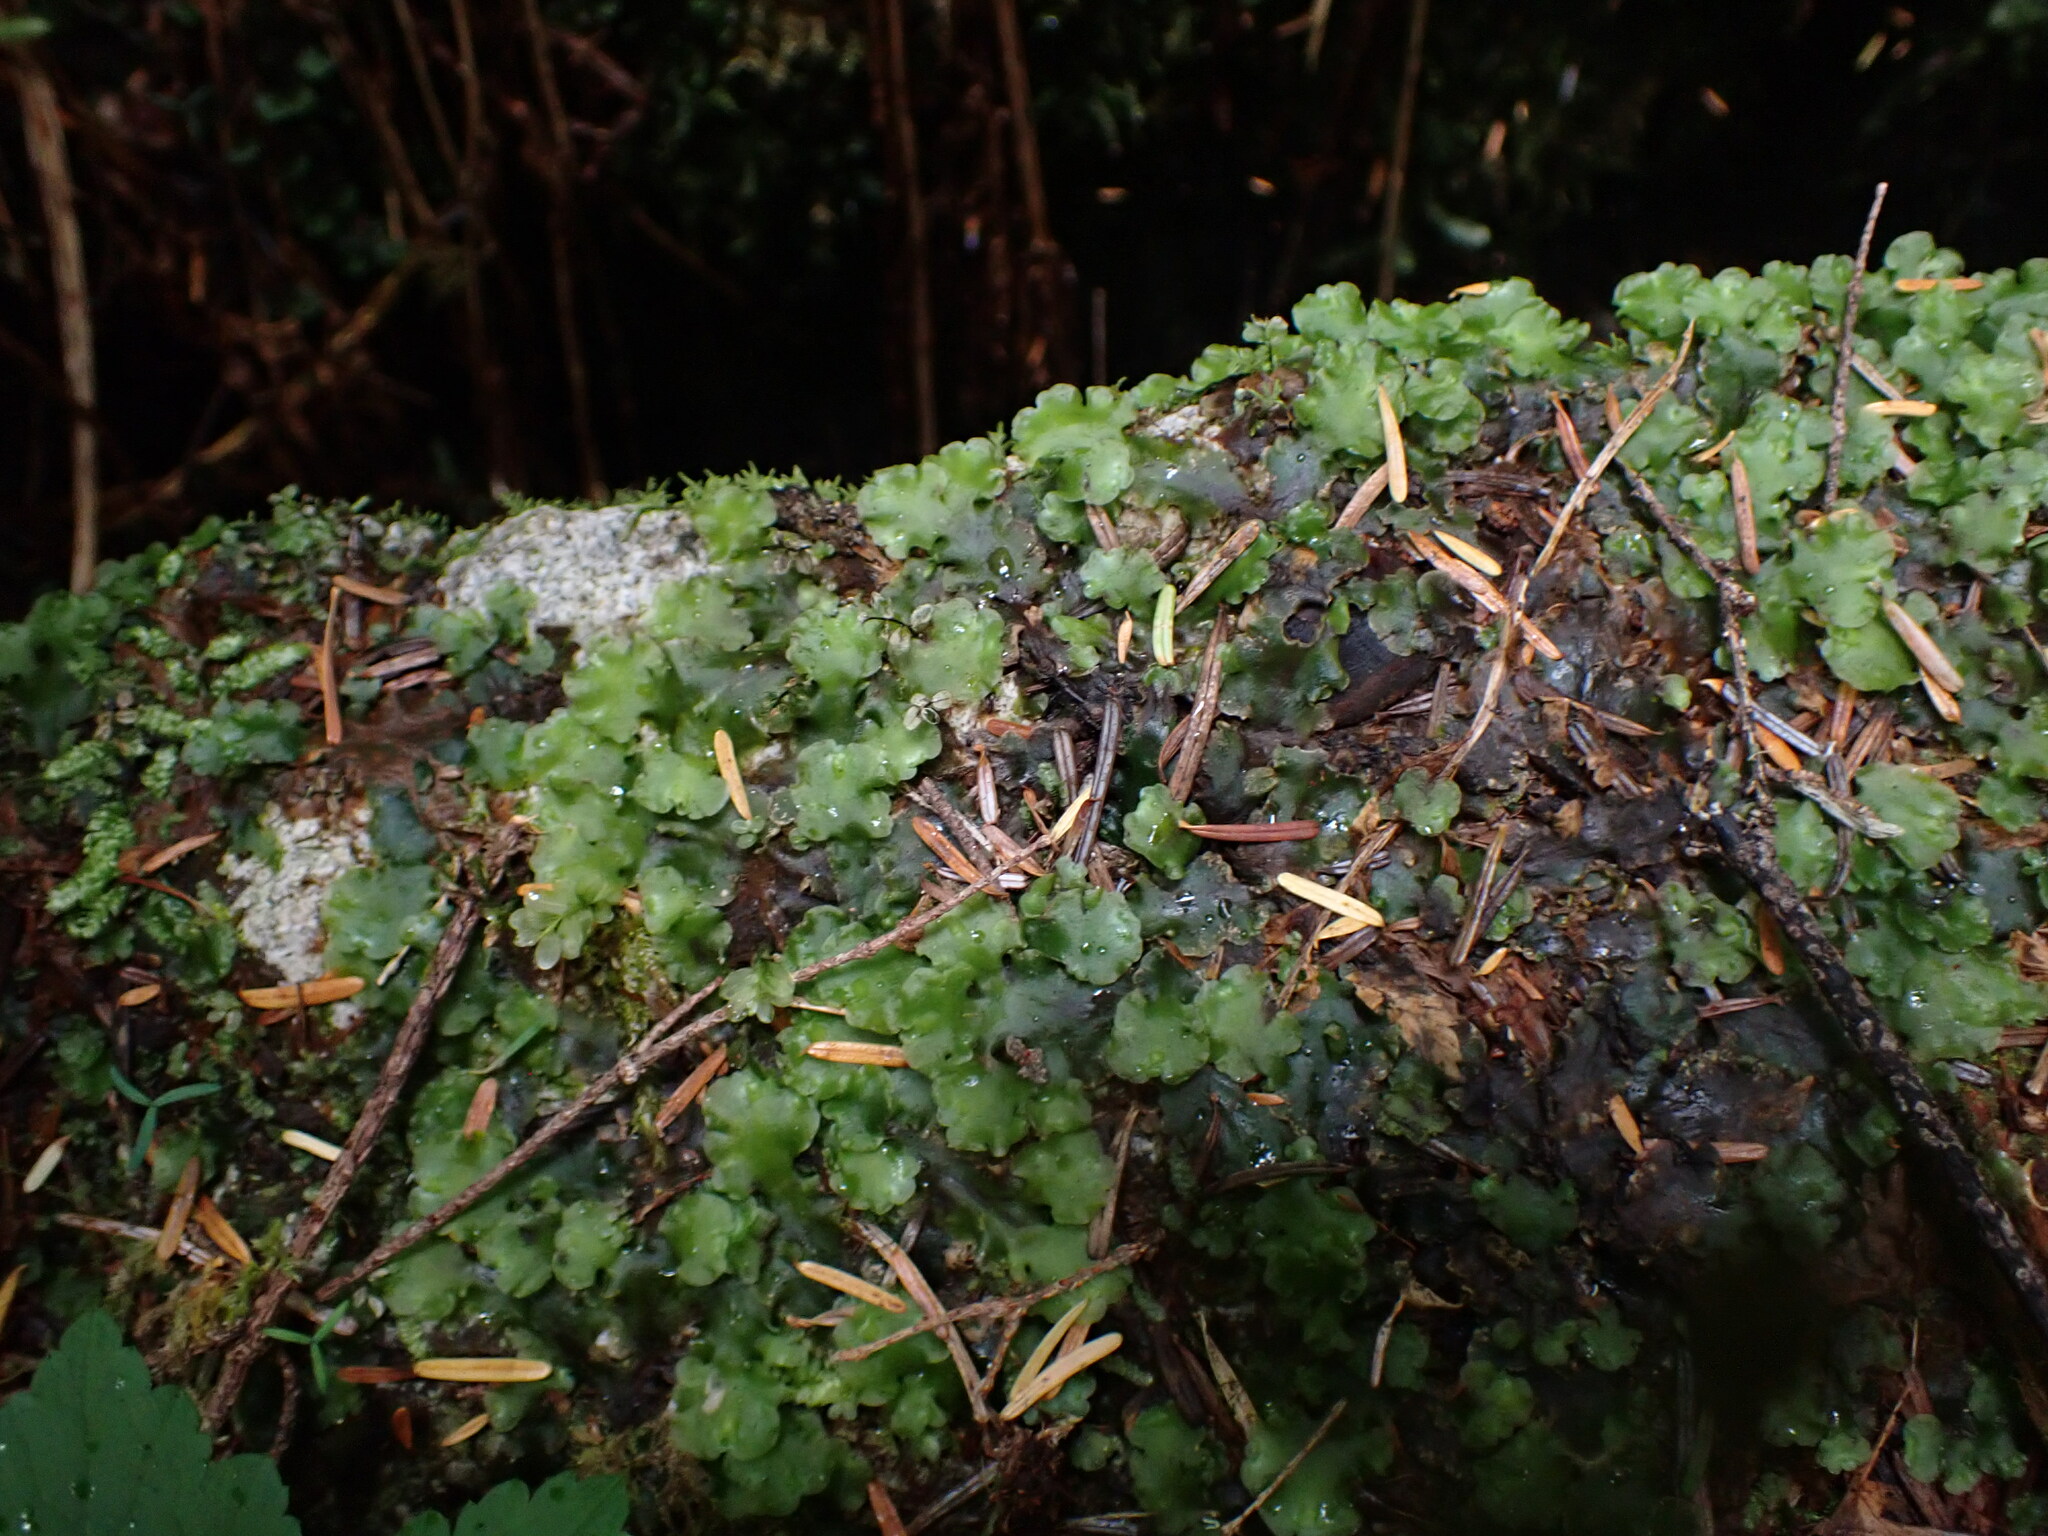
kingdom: Plantae
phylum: Marchantiophyta
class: Jungermanniopsida
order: Pelliales
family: Pelliaceae
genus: Pellia
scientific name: Pellia neesiana
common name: Nees  pellia
